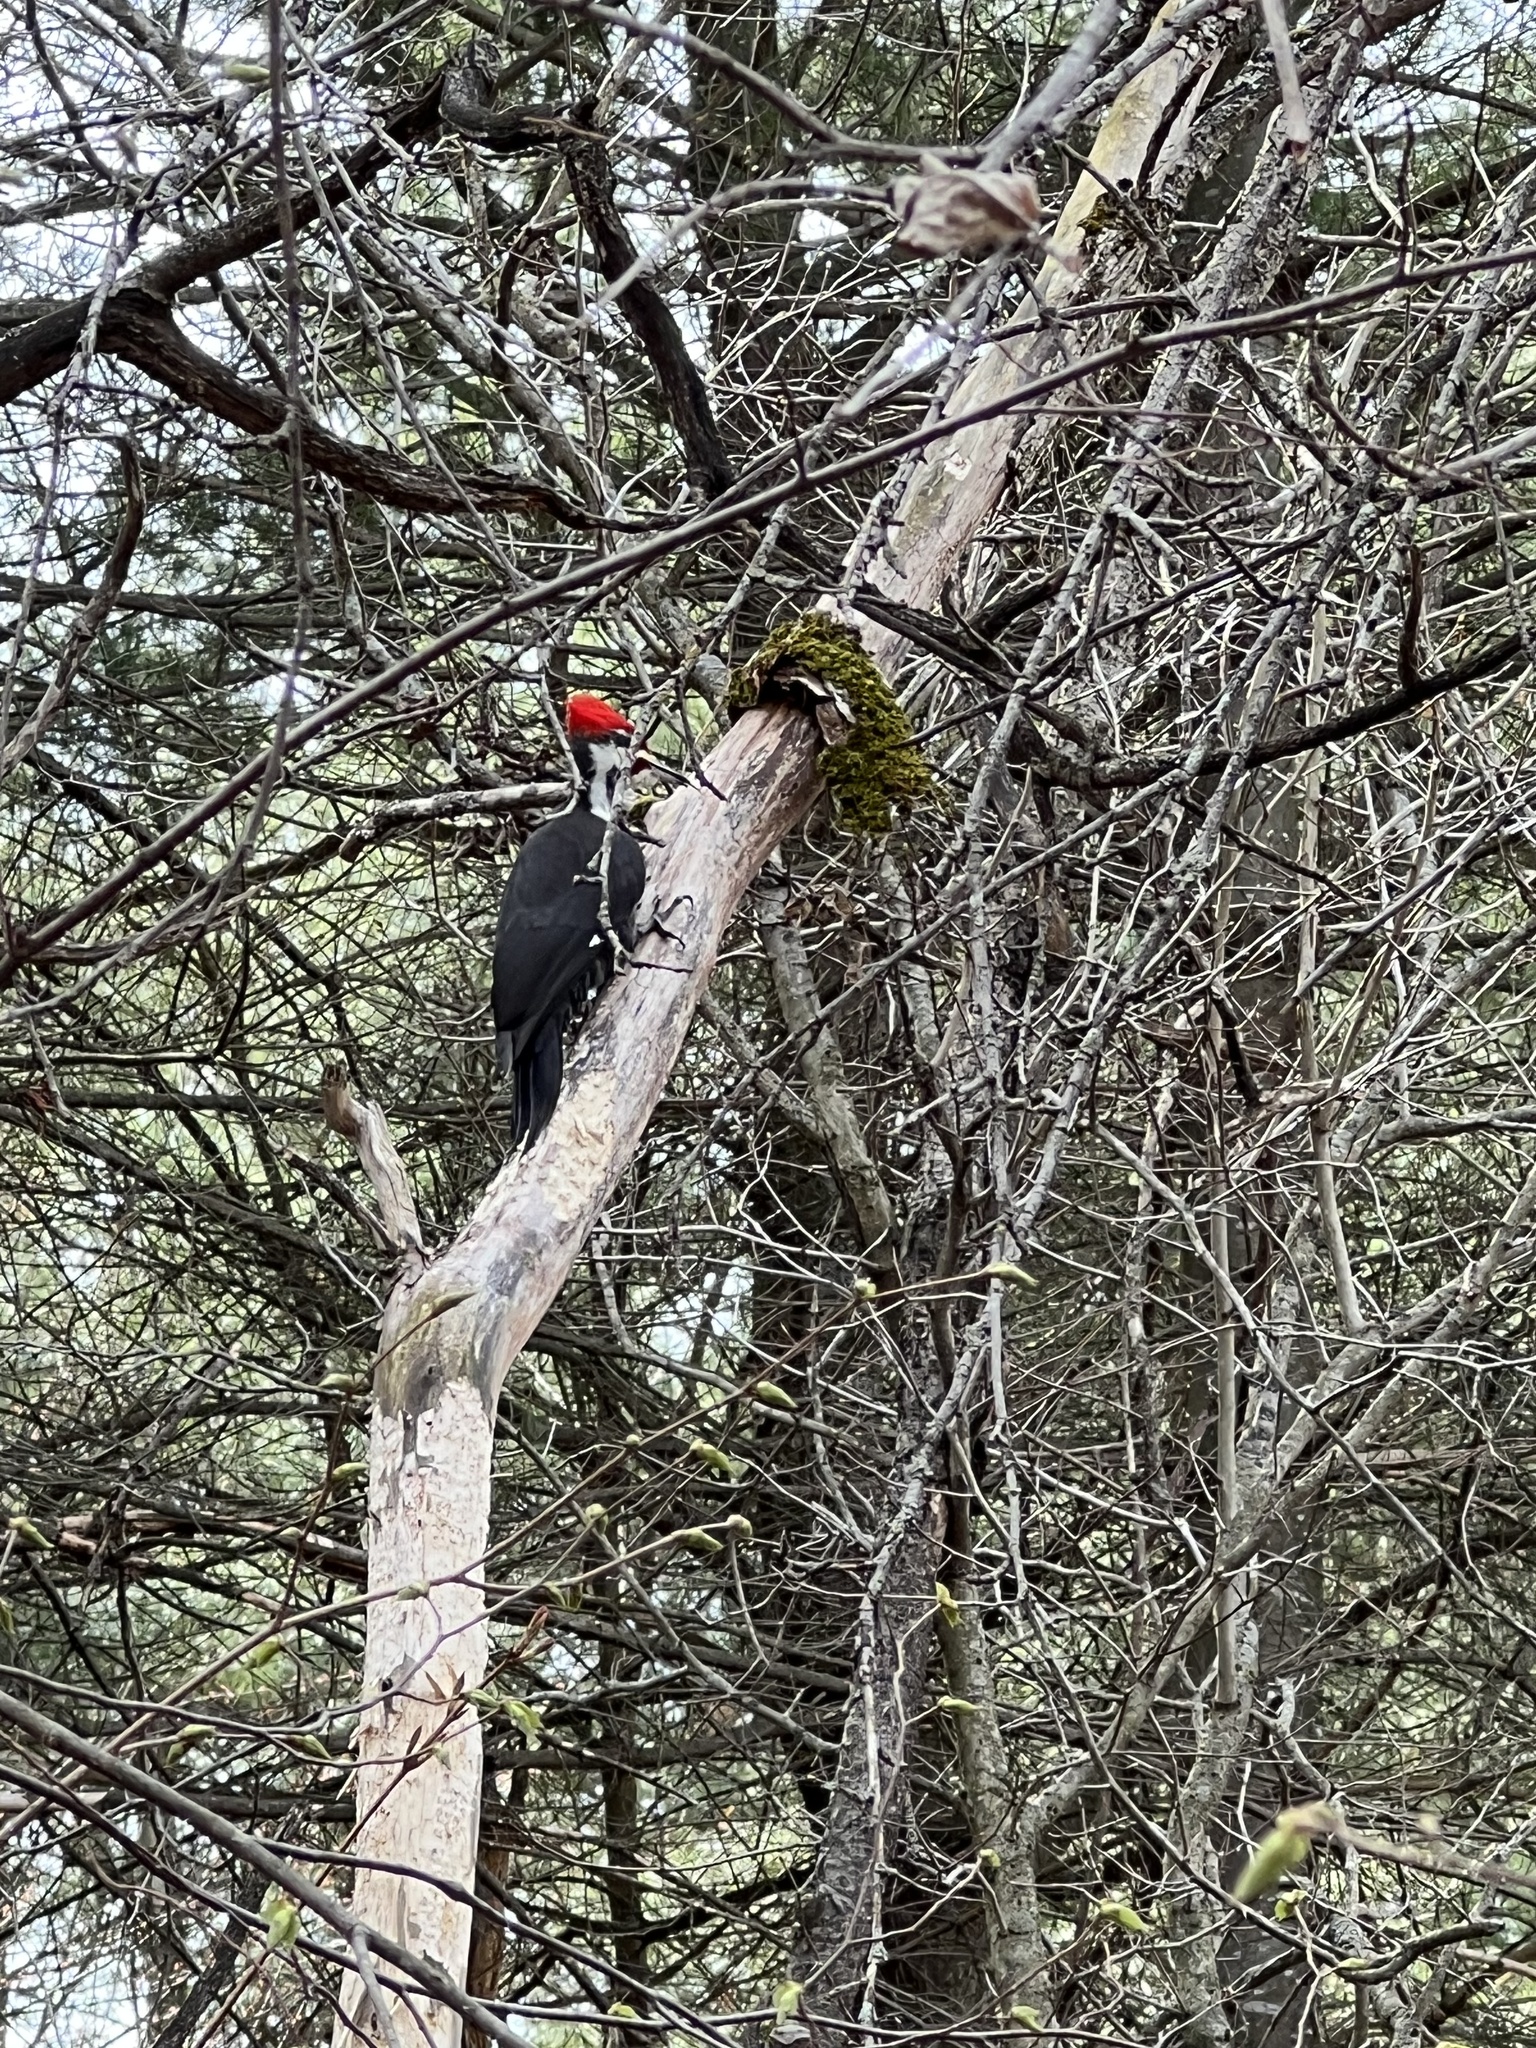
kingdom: Animalia
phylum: Chordata
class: Aves
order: Piciformes
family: Picidae
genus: Dryocopus
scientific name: Dryocopus pileatus
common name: Pileated woodpecker
